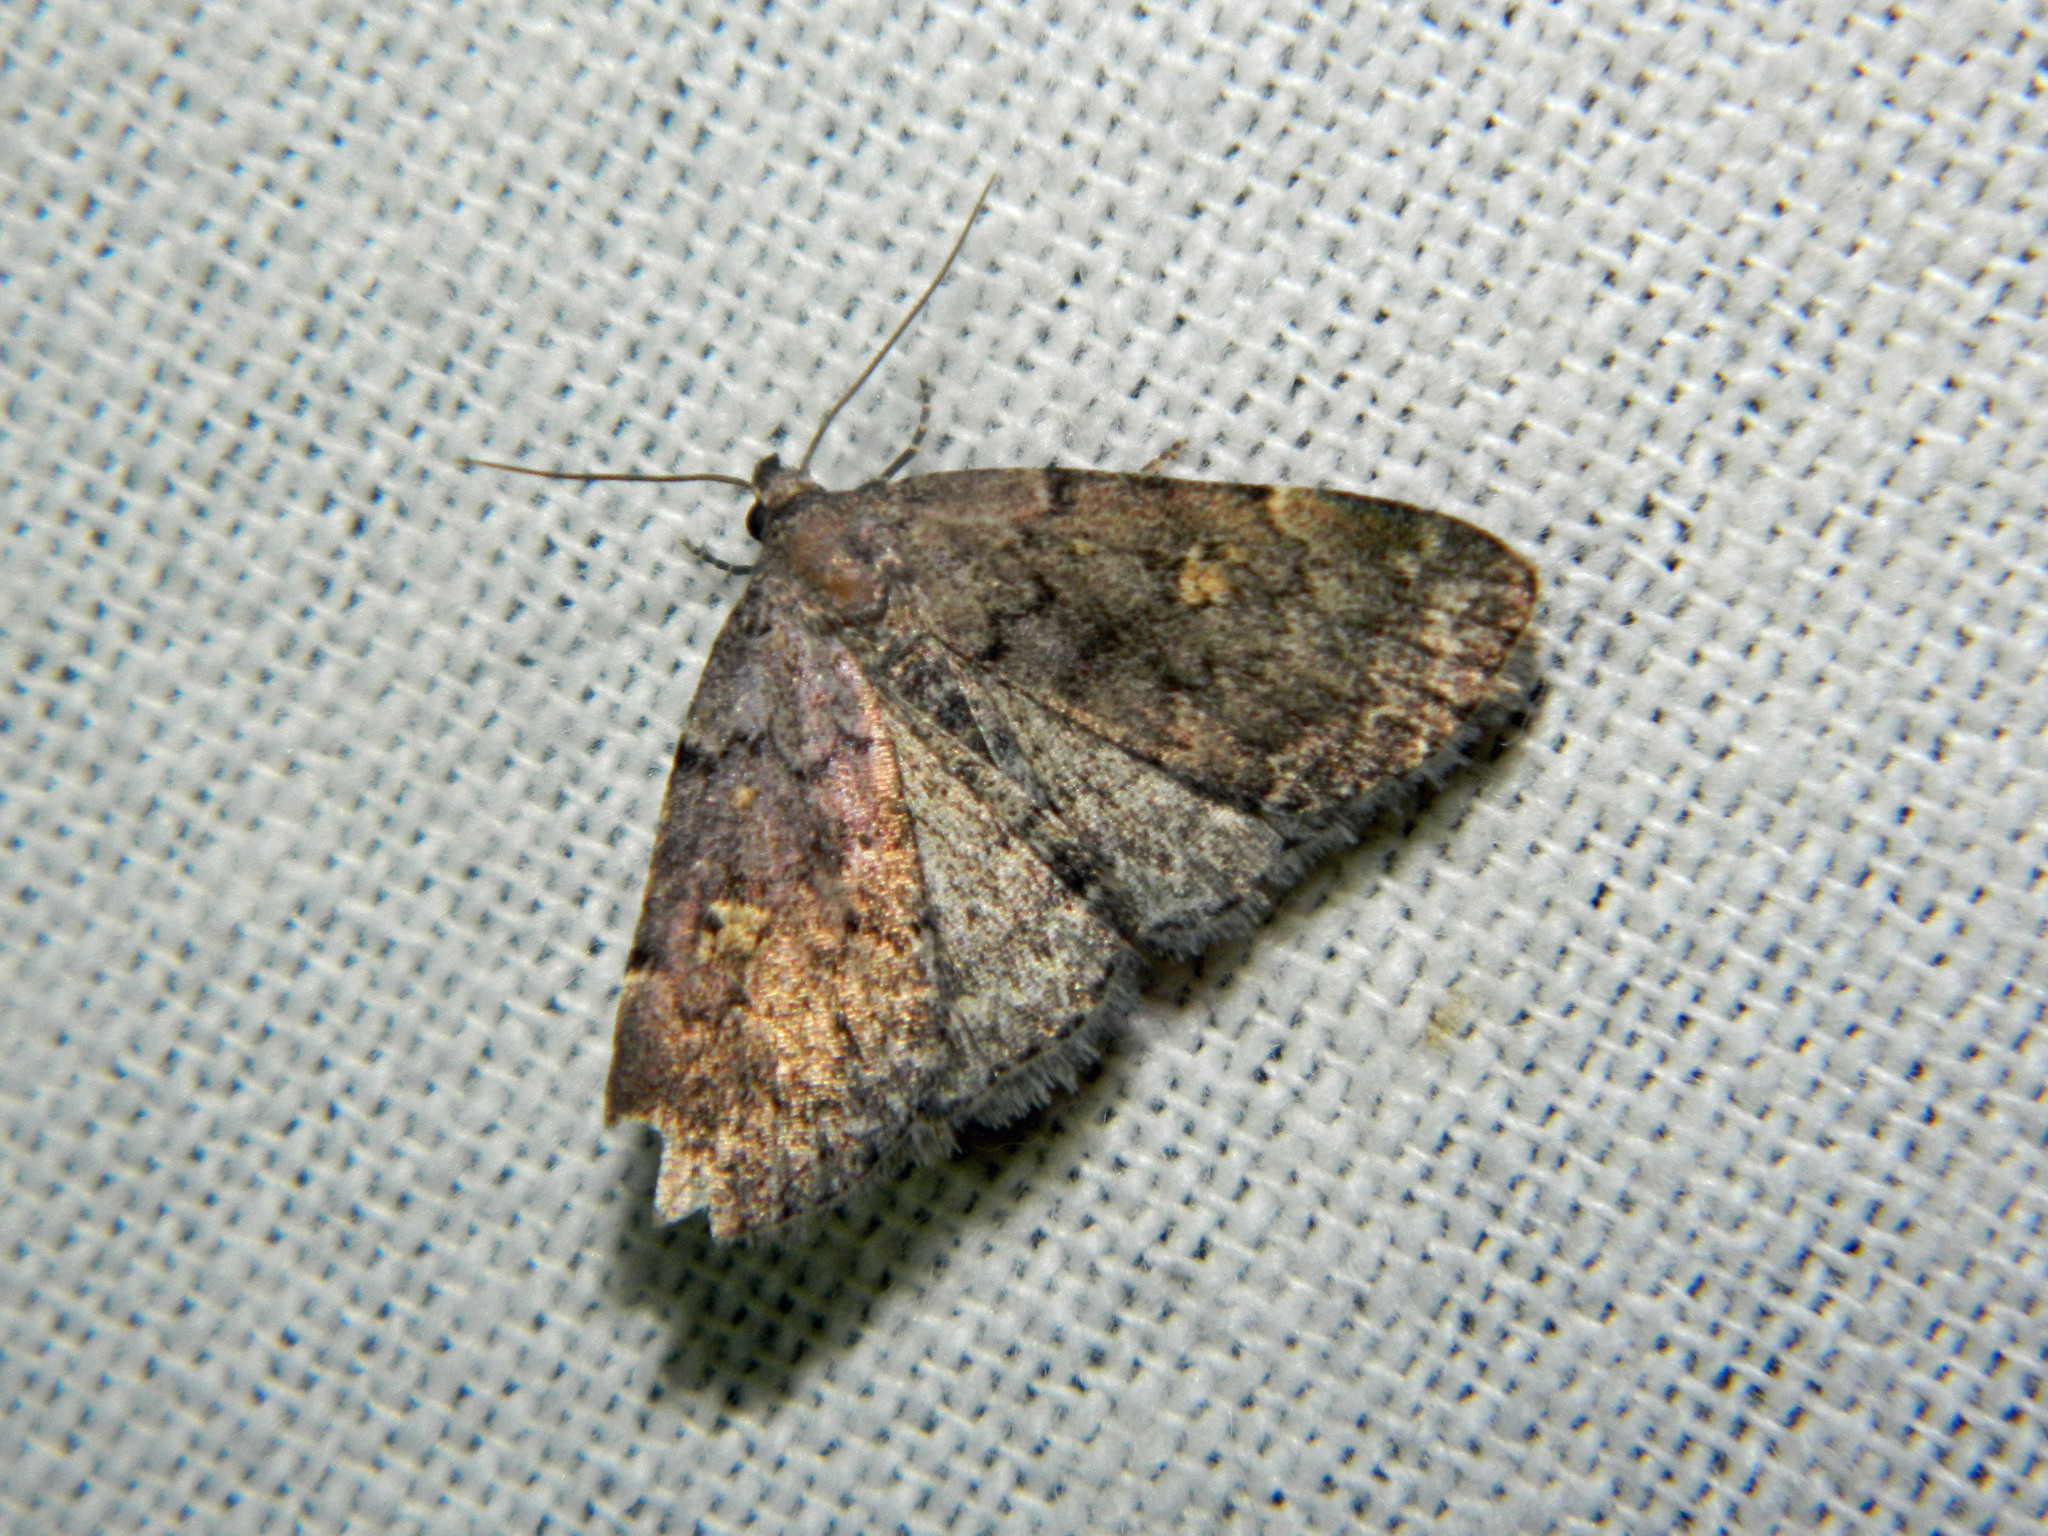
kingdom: Animalia
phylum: Arthropoda
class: Insecta
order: Lepidoptera
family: Erebidae
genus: Idia
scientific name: Idia aemula
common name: Common idia moth
